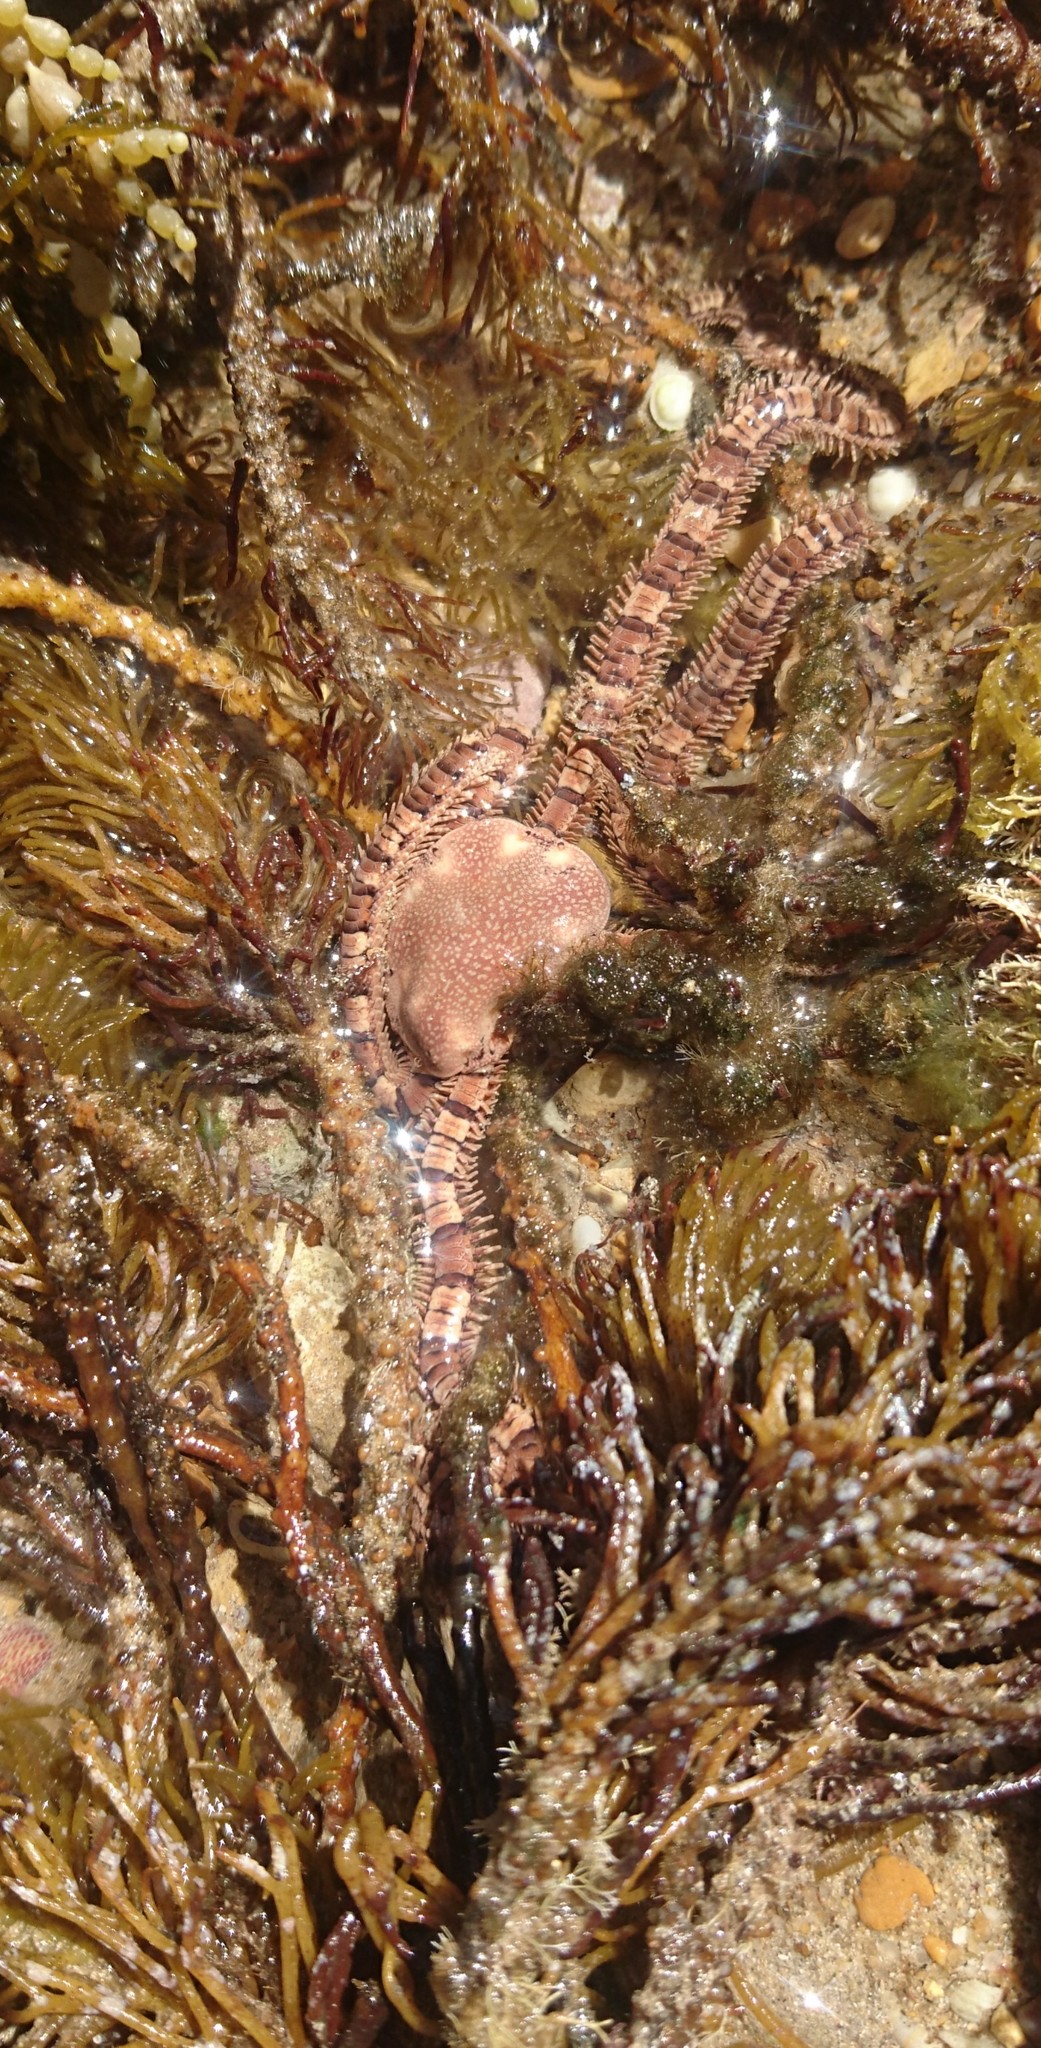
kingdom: Animalia
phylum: Echinodermata
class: Ophiuroidea
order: Amphilepidida
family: Ophionereididae
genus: Ophionereis
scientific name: Ophionereis schayeri
